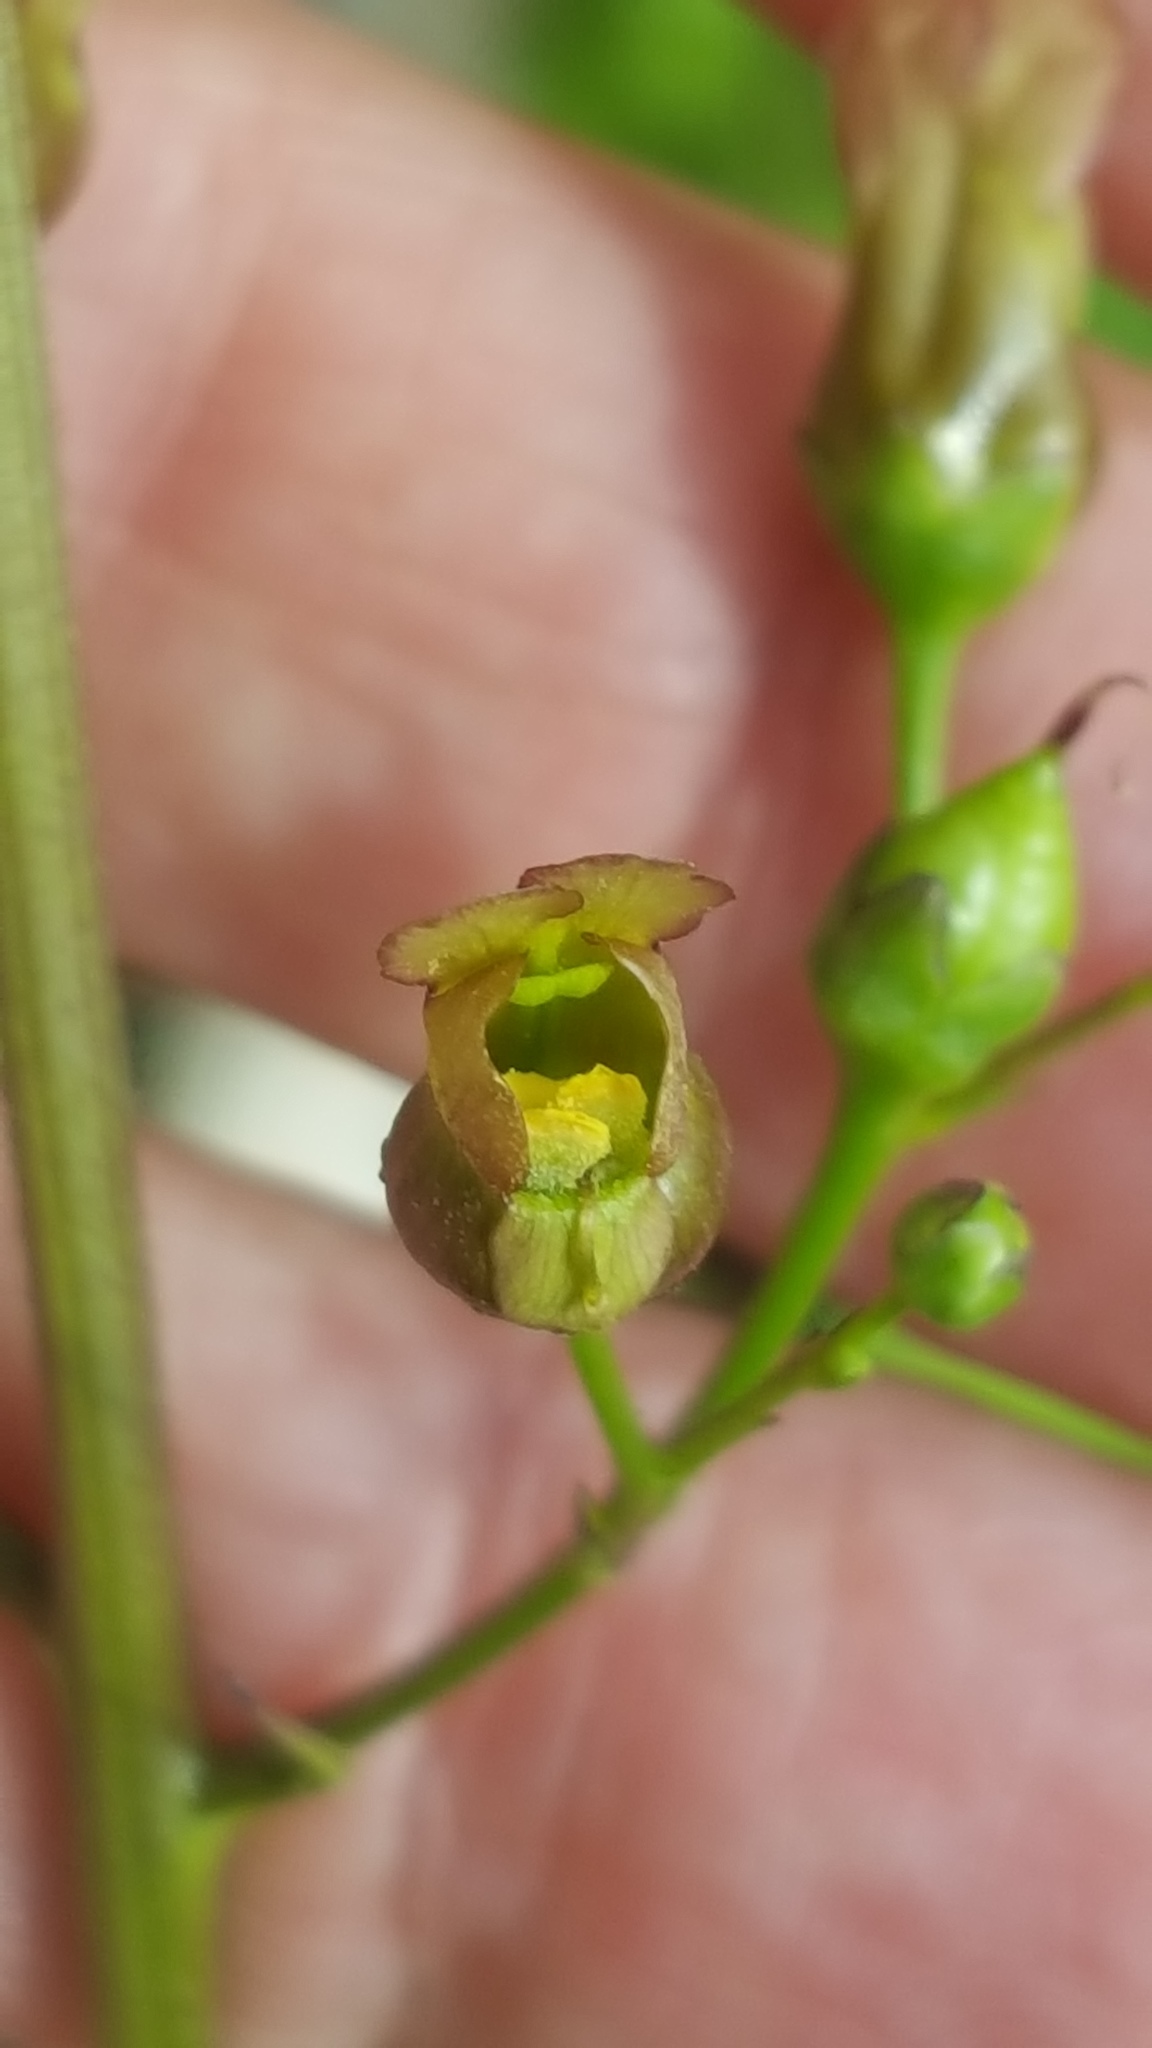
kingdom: Plantae
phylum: Tracheophyta
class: Magnoliopsida
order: Lamiales
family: Scrophulariaceae
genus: Scrophularia
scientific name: Scrophularia lanceolata
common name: American figwort
